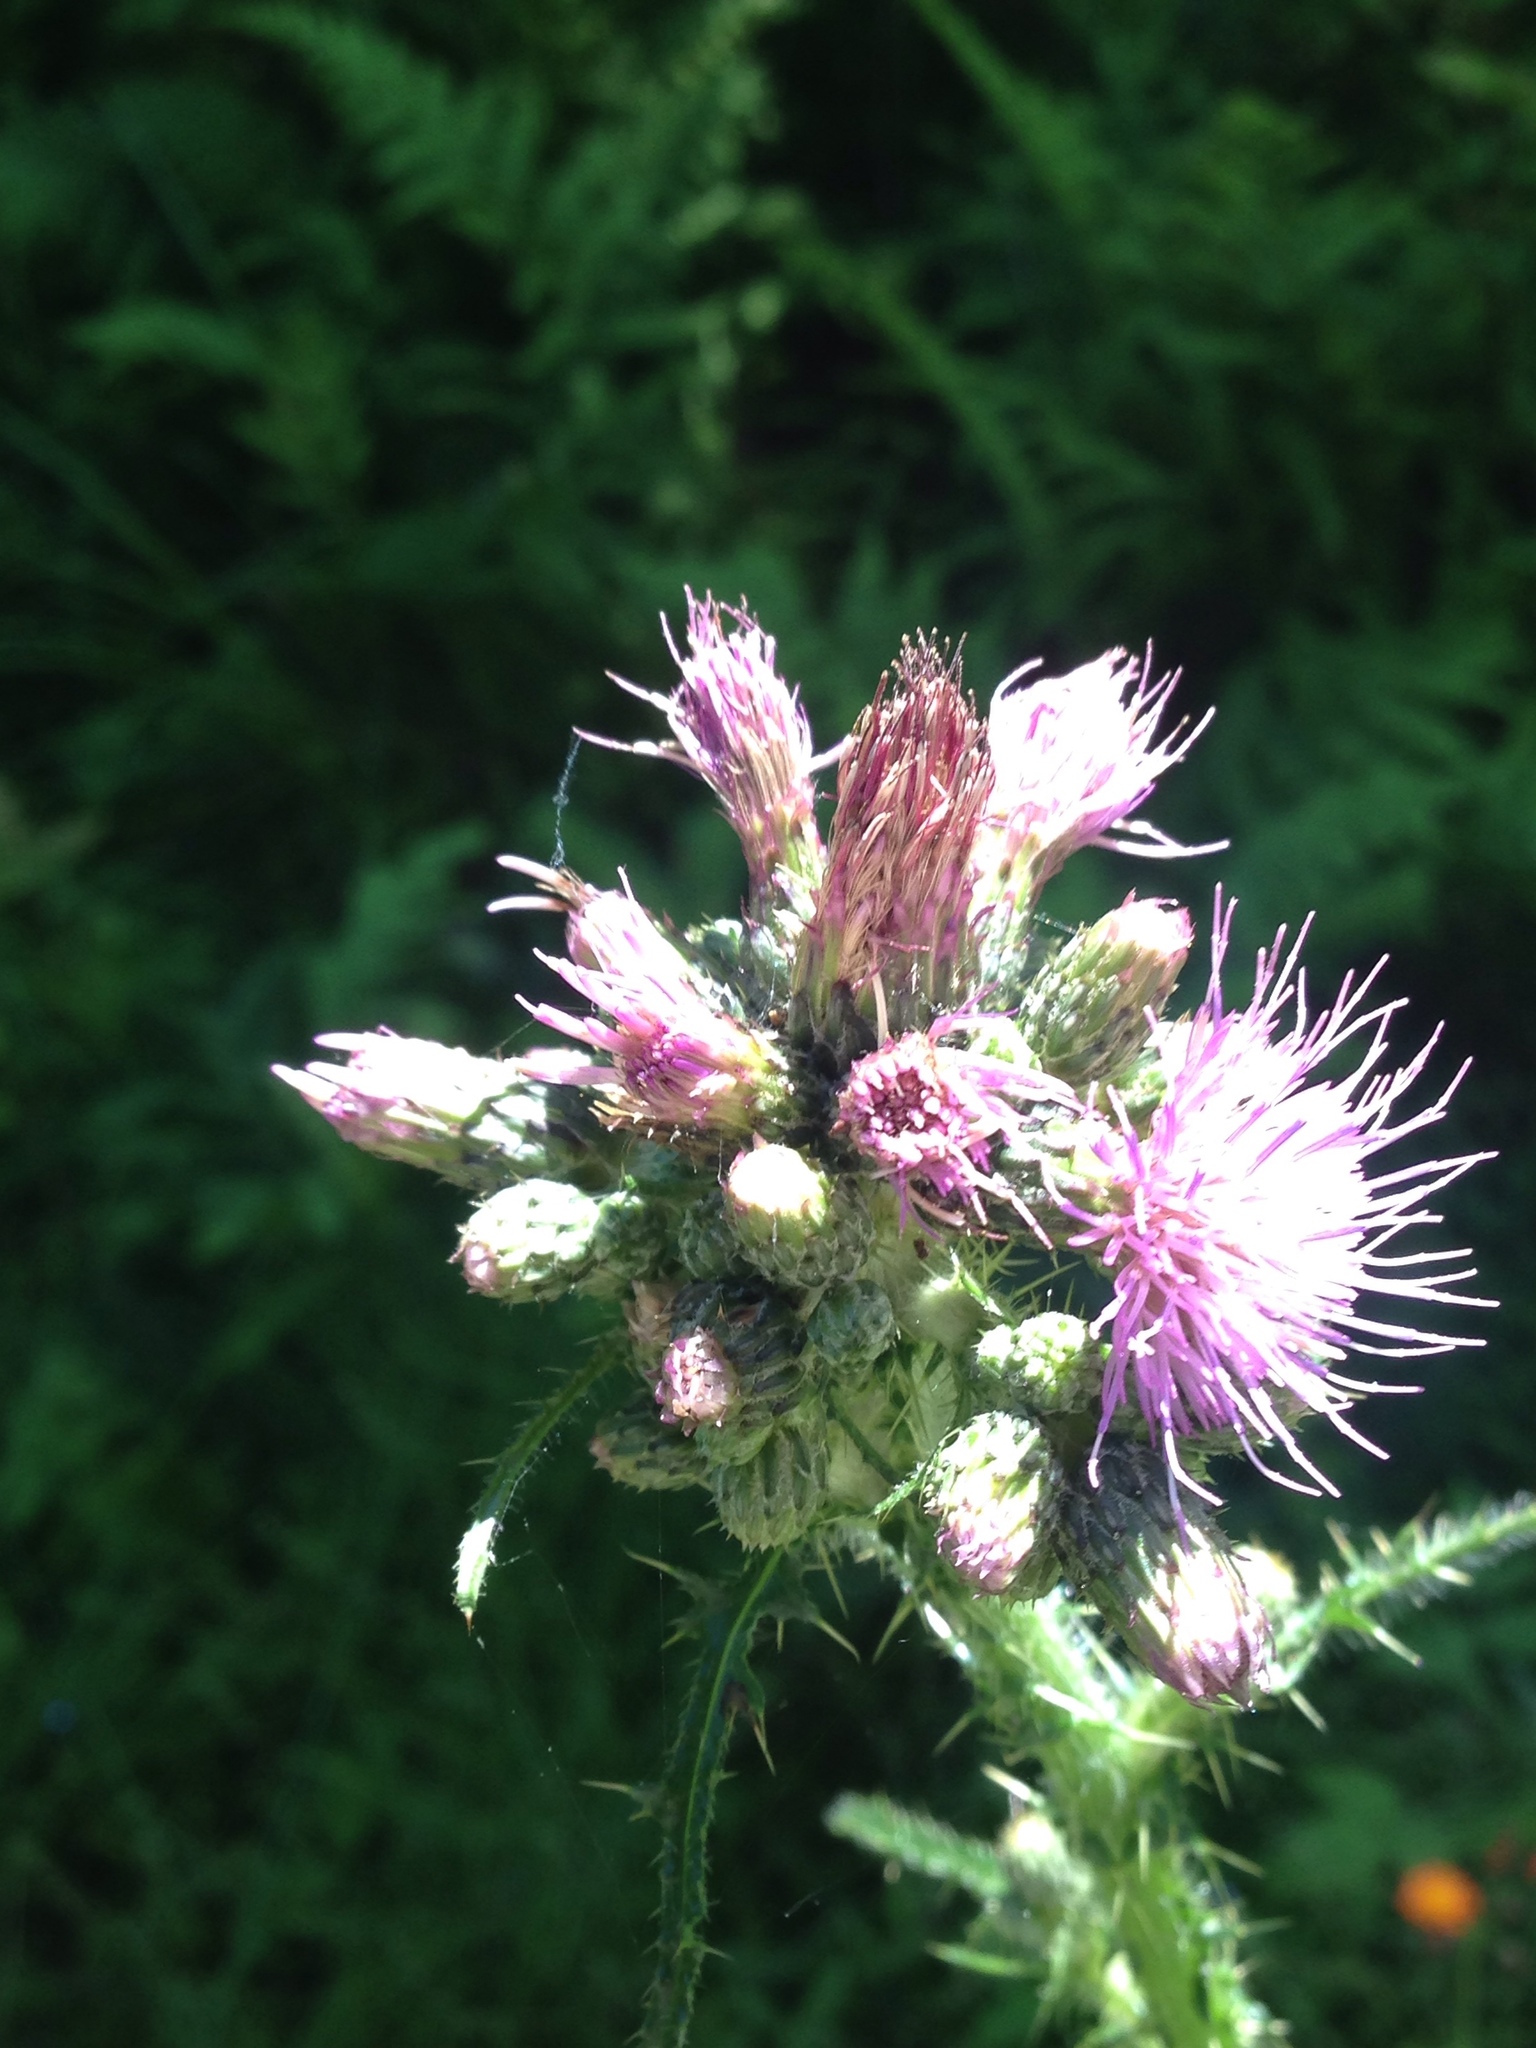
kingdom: Plantae
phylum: Tracheophyta
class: Magnoliopsida
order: Asterales
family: Asteraceae
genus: Cirsium
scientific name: Cirsium palustre
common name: Marsh thistle
